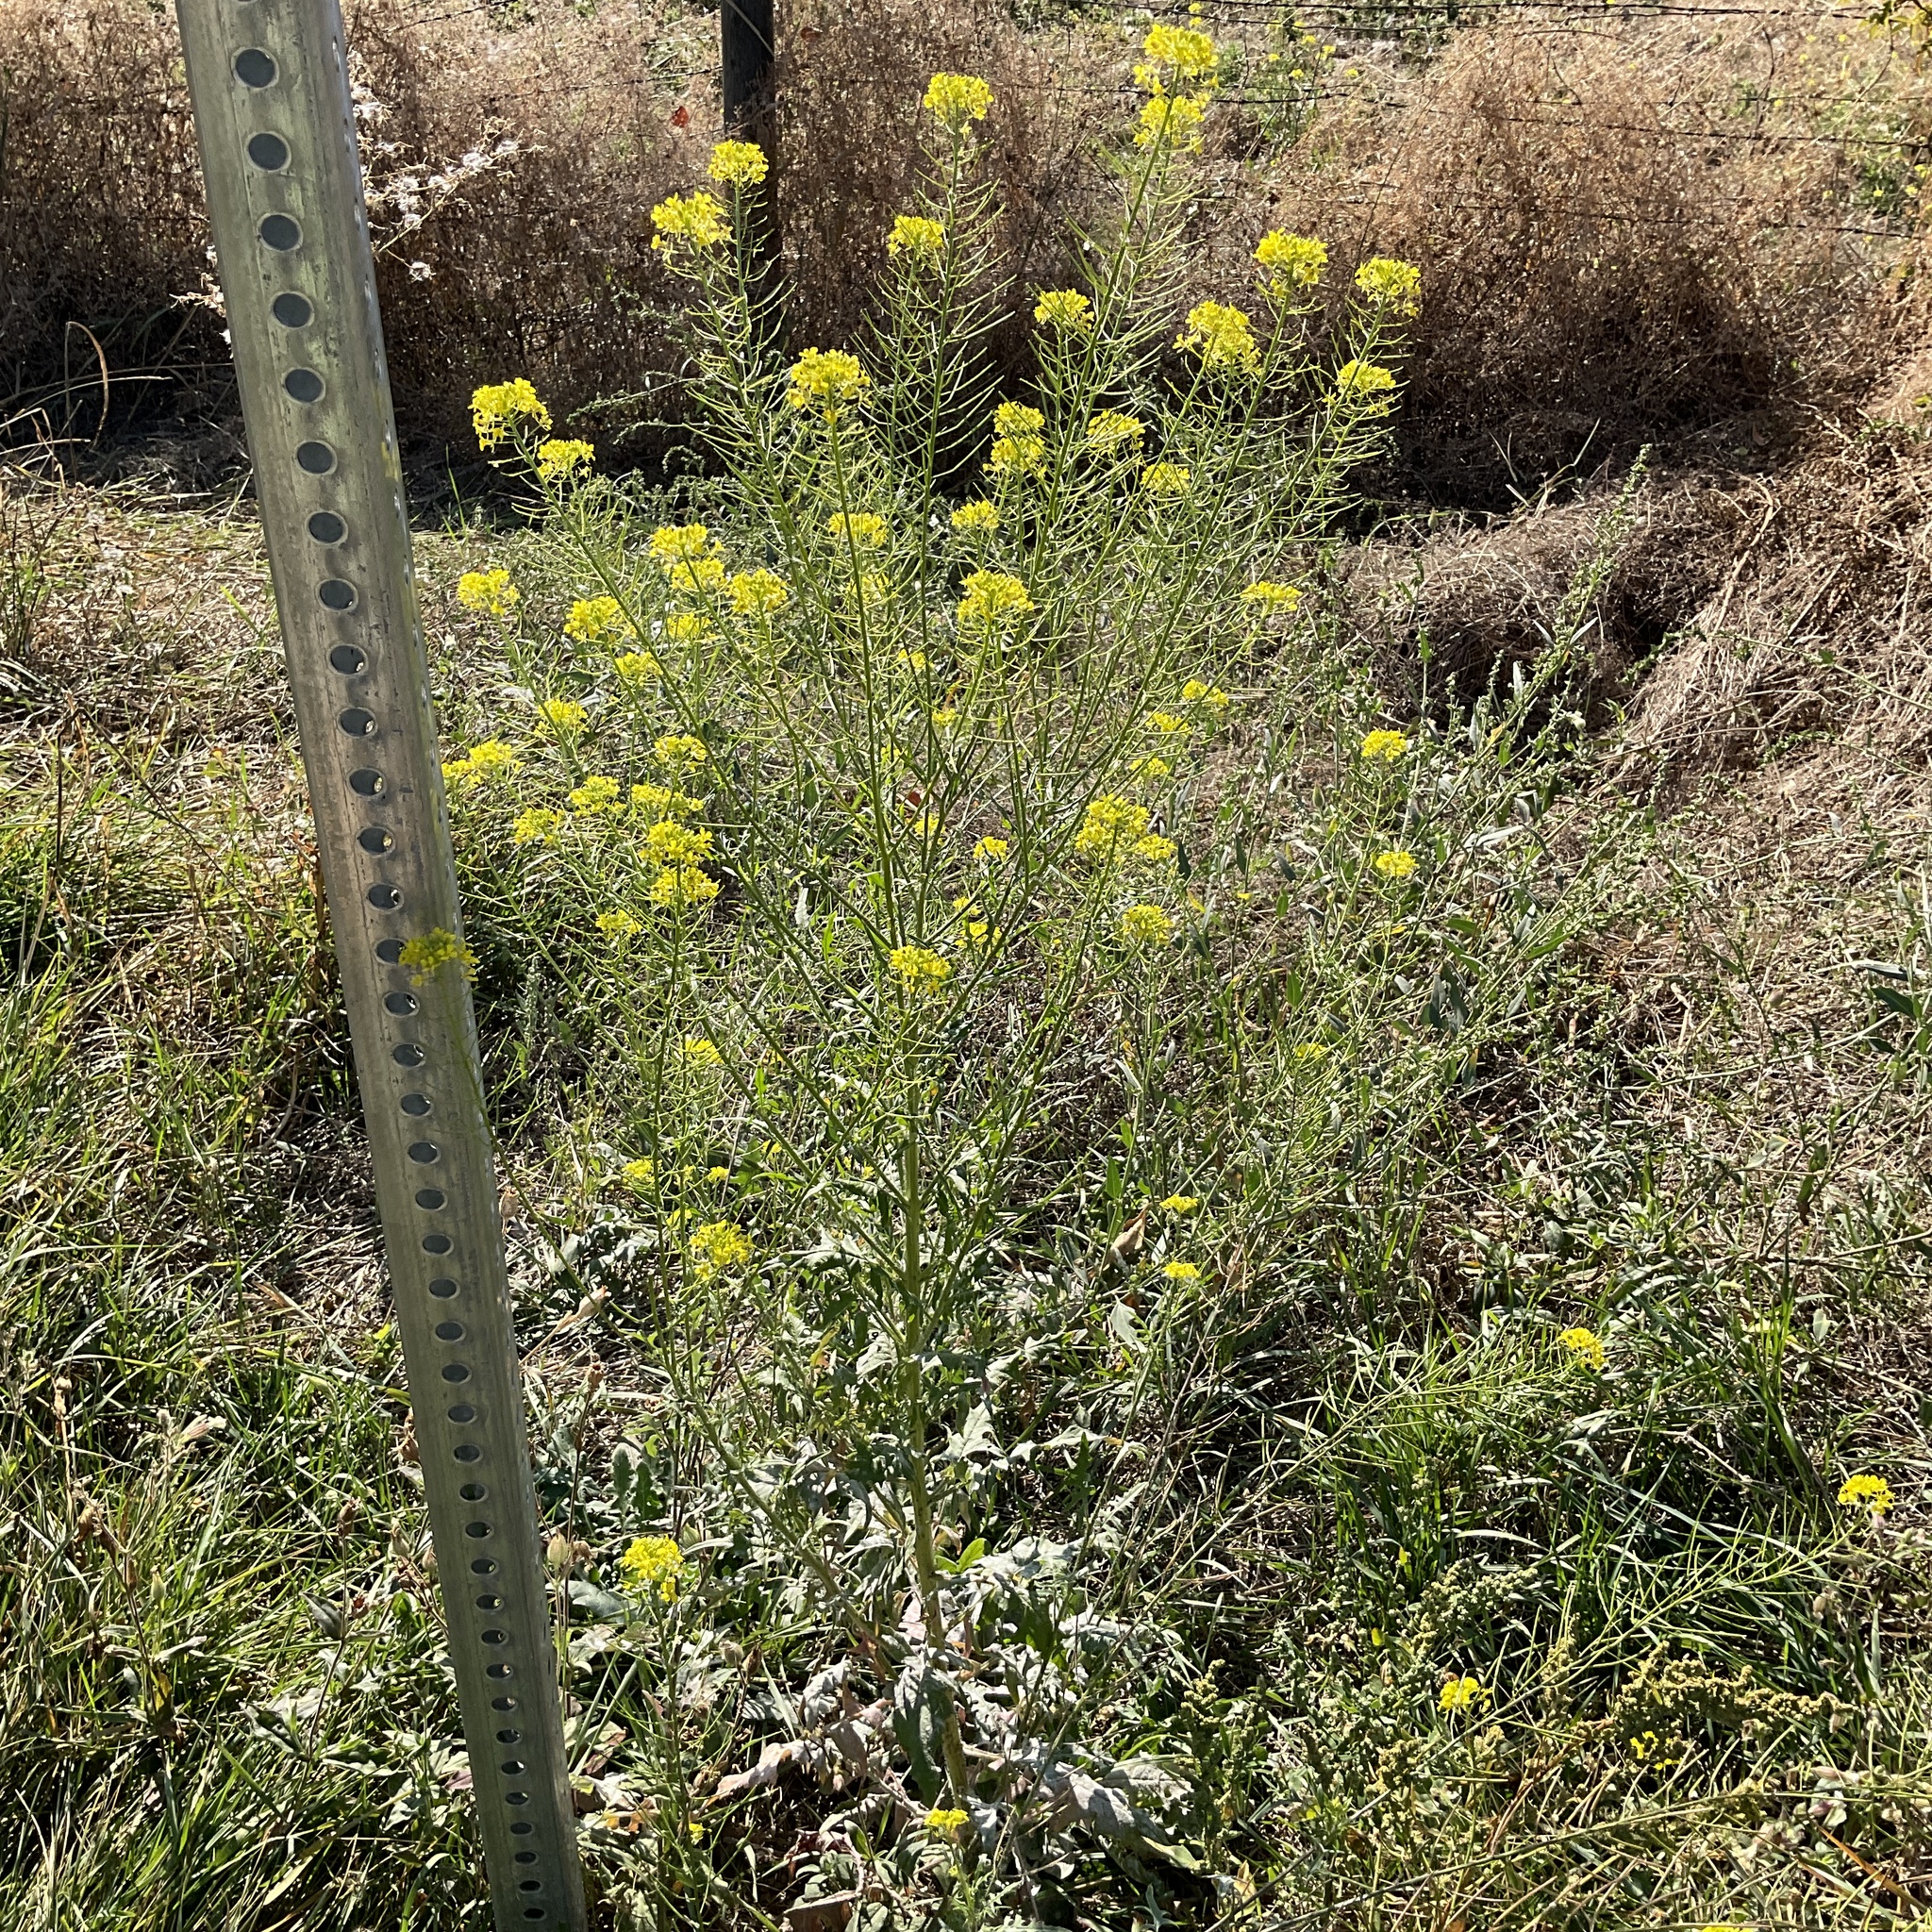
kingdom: Plantae
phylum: Tracheophyta
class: Magnoliopsida
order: Brassicales
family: Brassicaceae
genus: Sisymbrium
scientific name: Sisymbrium loeselii
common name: False london-rocket
